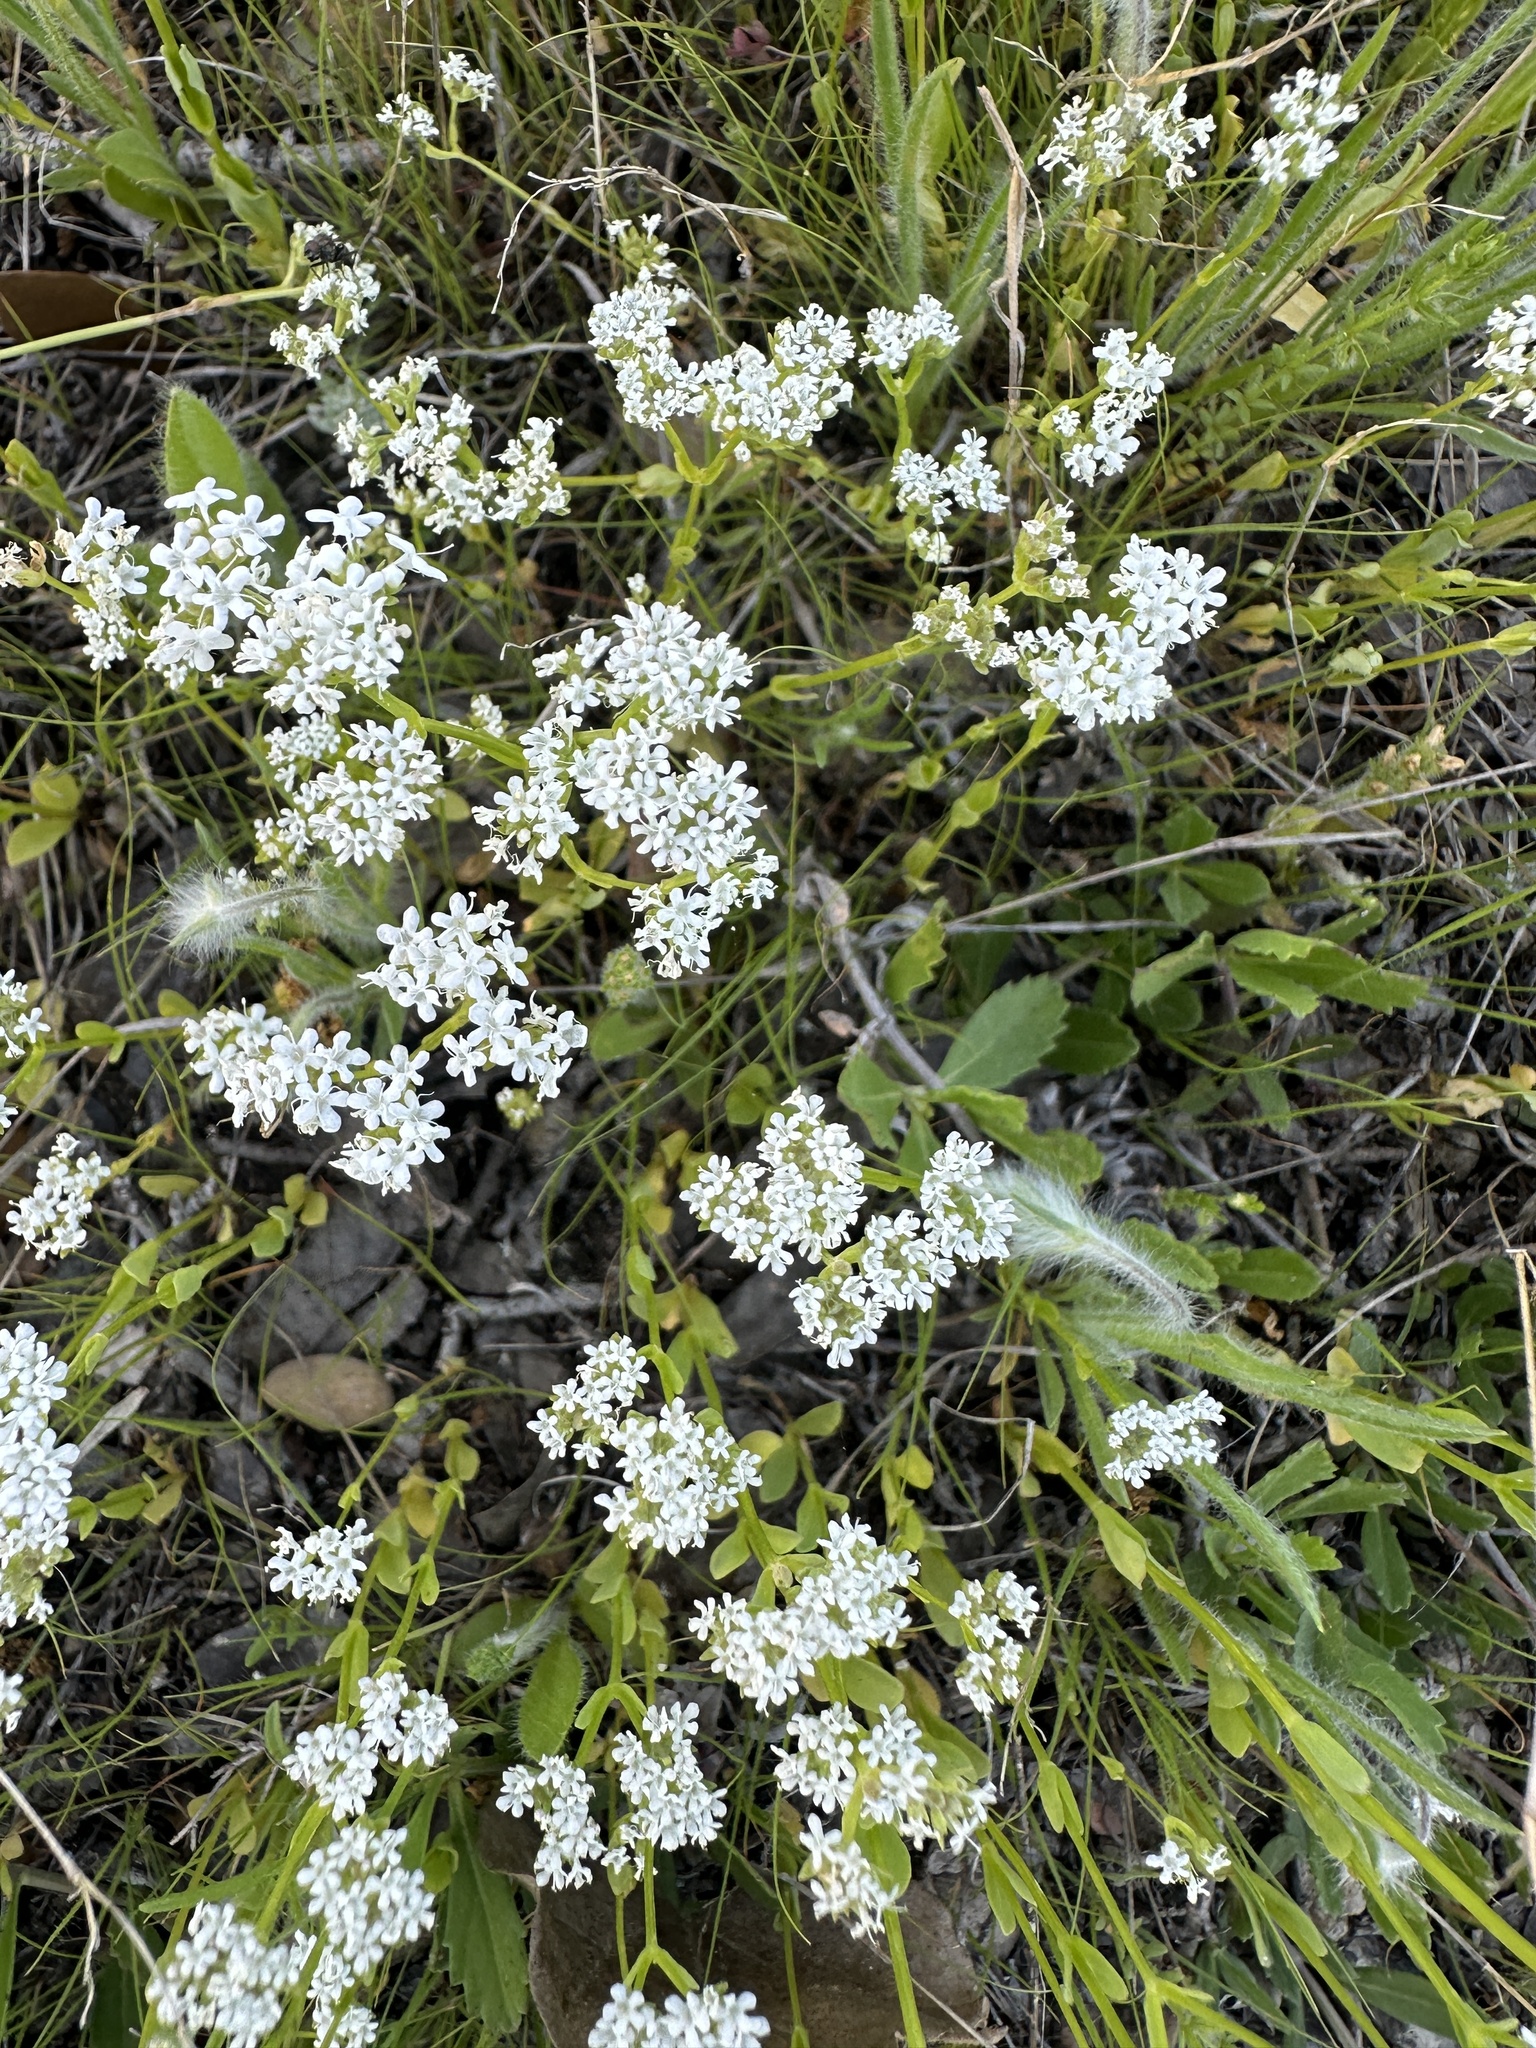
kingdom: Plantae
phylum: Tracheophyta
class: Magnoliopsida
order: Dipsacales
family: Caprifoliaceae
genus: Valerianella
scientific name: Valerianella amarella
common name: Hariy cornsalad
